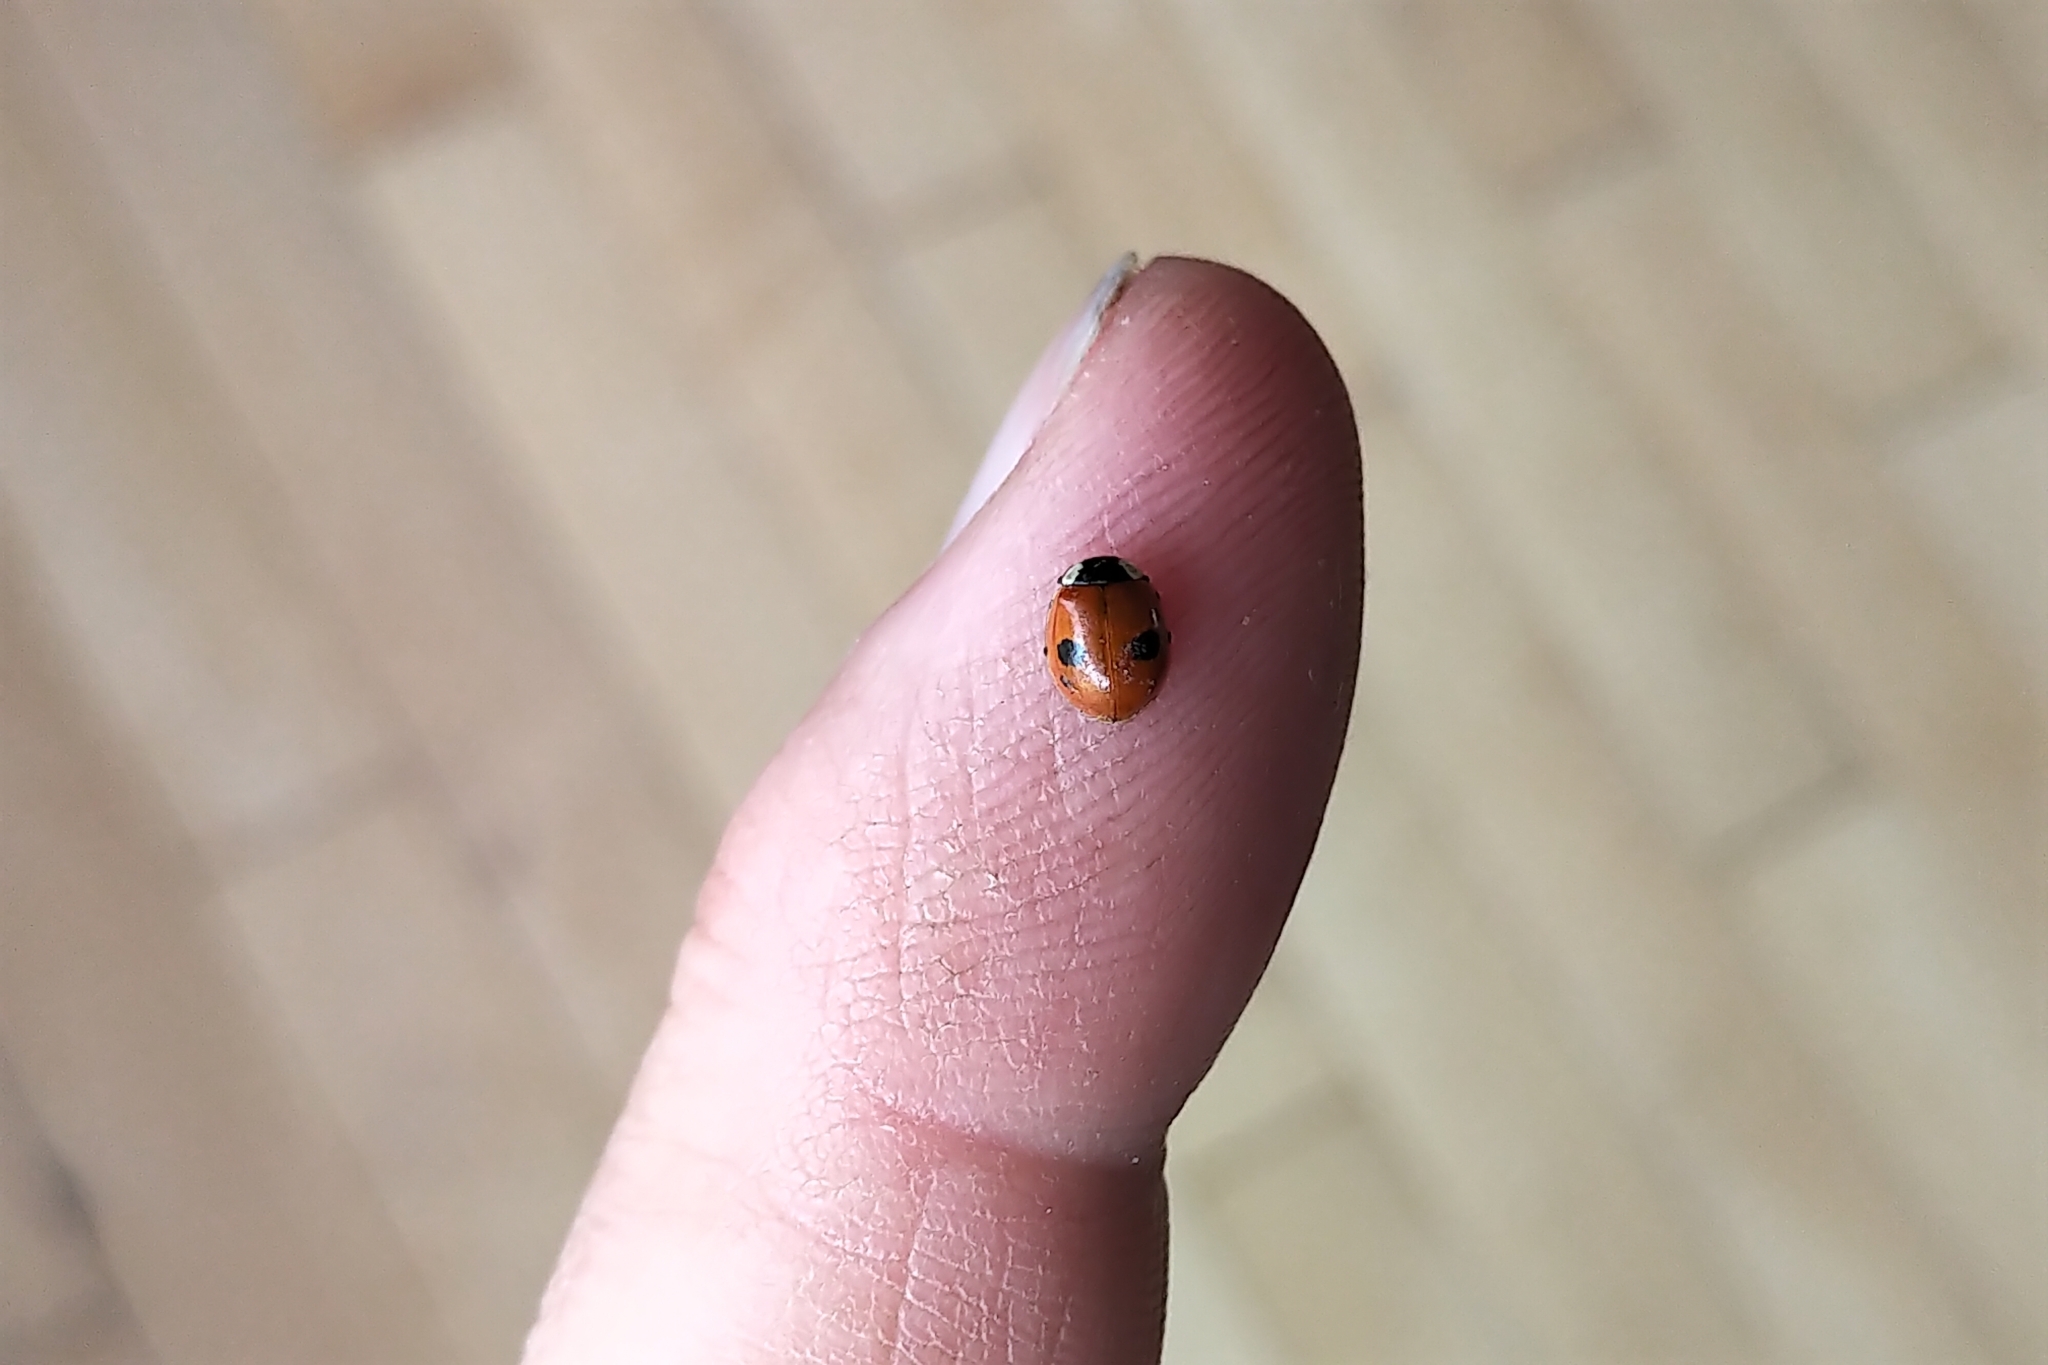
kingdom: Animalia
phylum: Arthropoda
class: Insecta
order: Coleoptera
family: Coccinellidae
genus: Adalia
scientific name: Adalia bipunctata
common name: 2-spot ladybird
